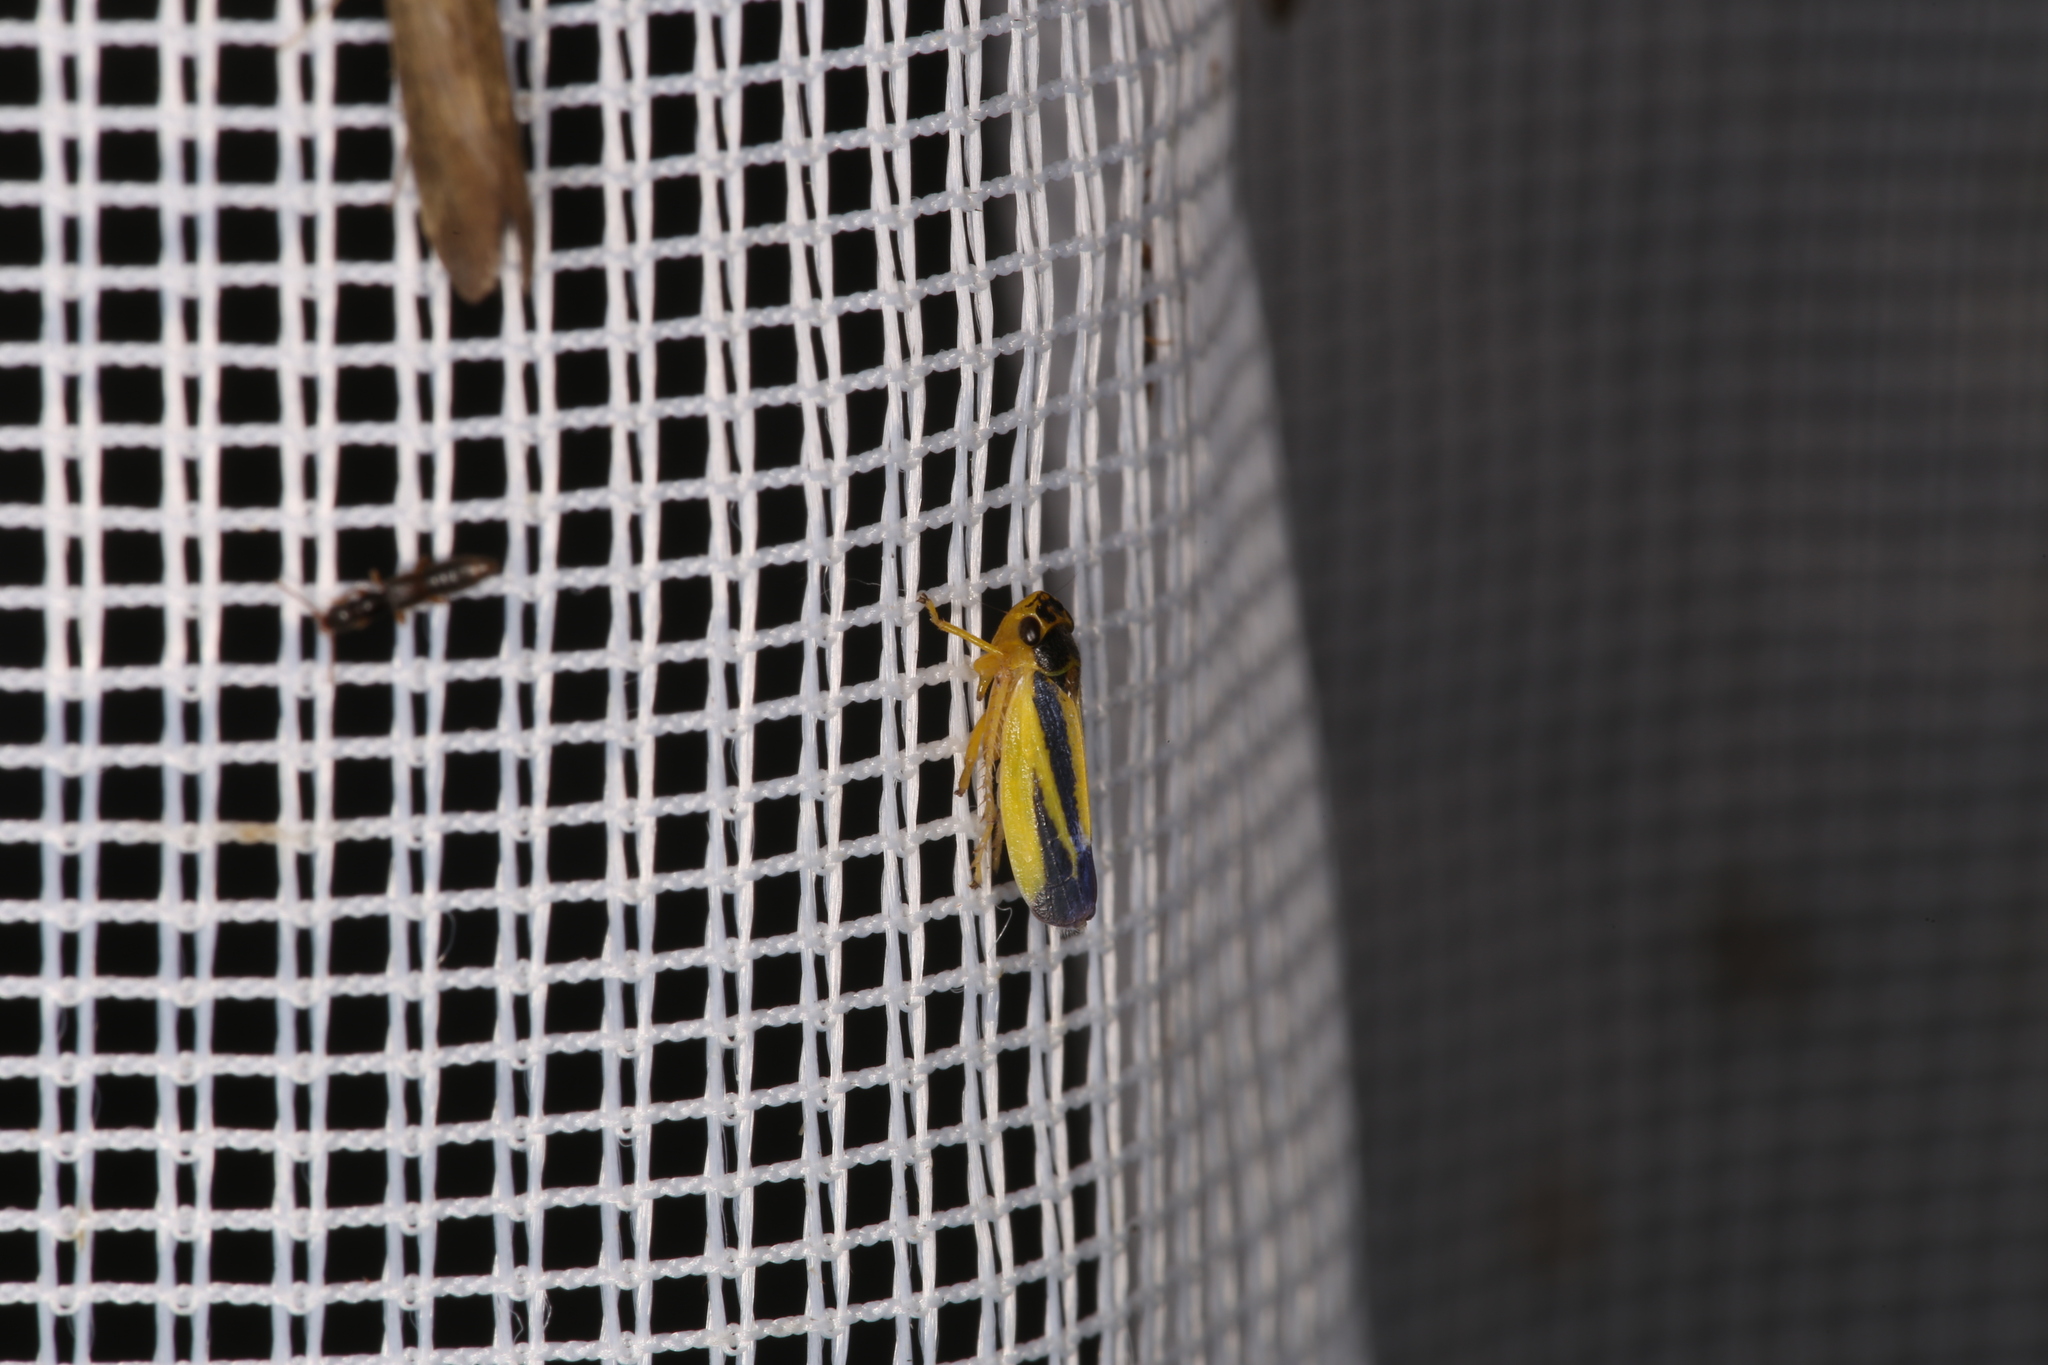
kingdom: Animalia
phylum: Arthropoda
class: Insecta
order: Hemiptera
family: Cicadellidae
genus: Evacanthus
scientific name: Evacanthus interruptus
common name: Leafhopper
